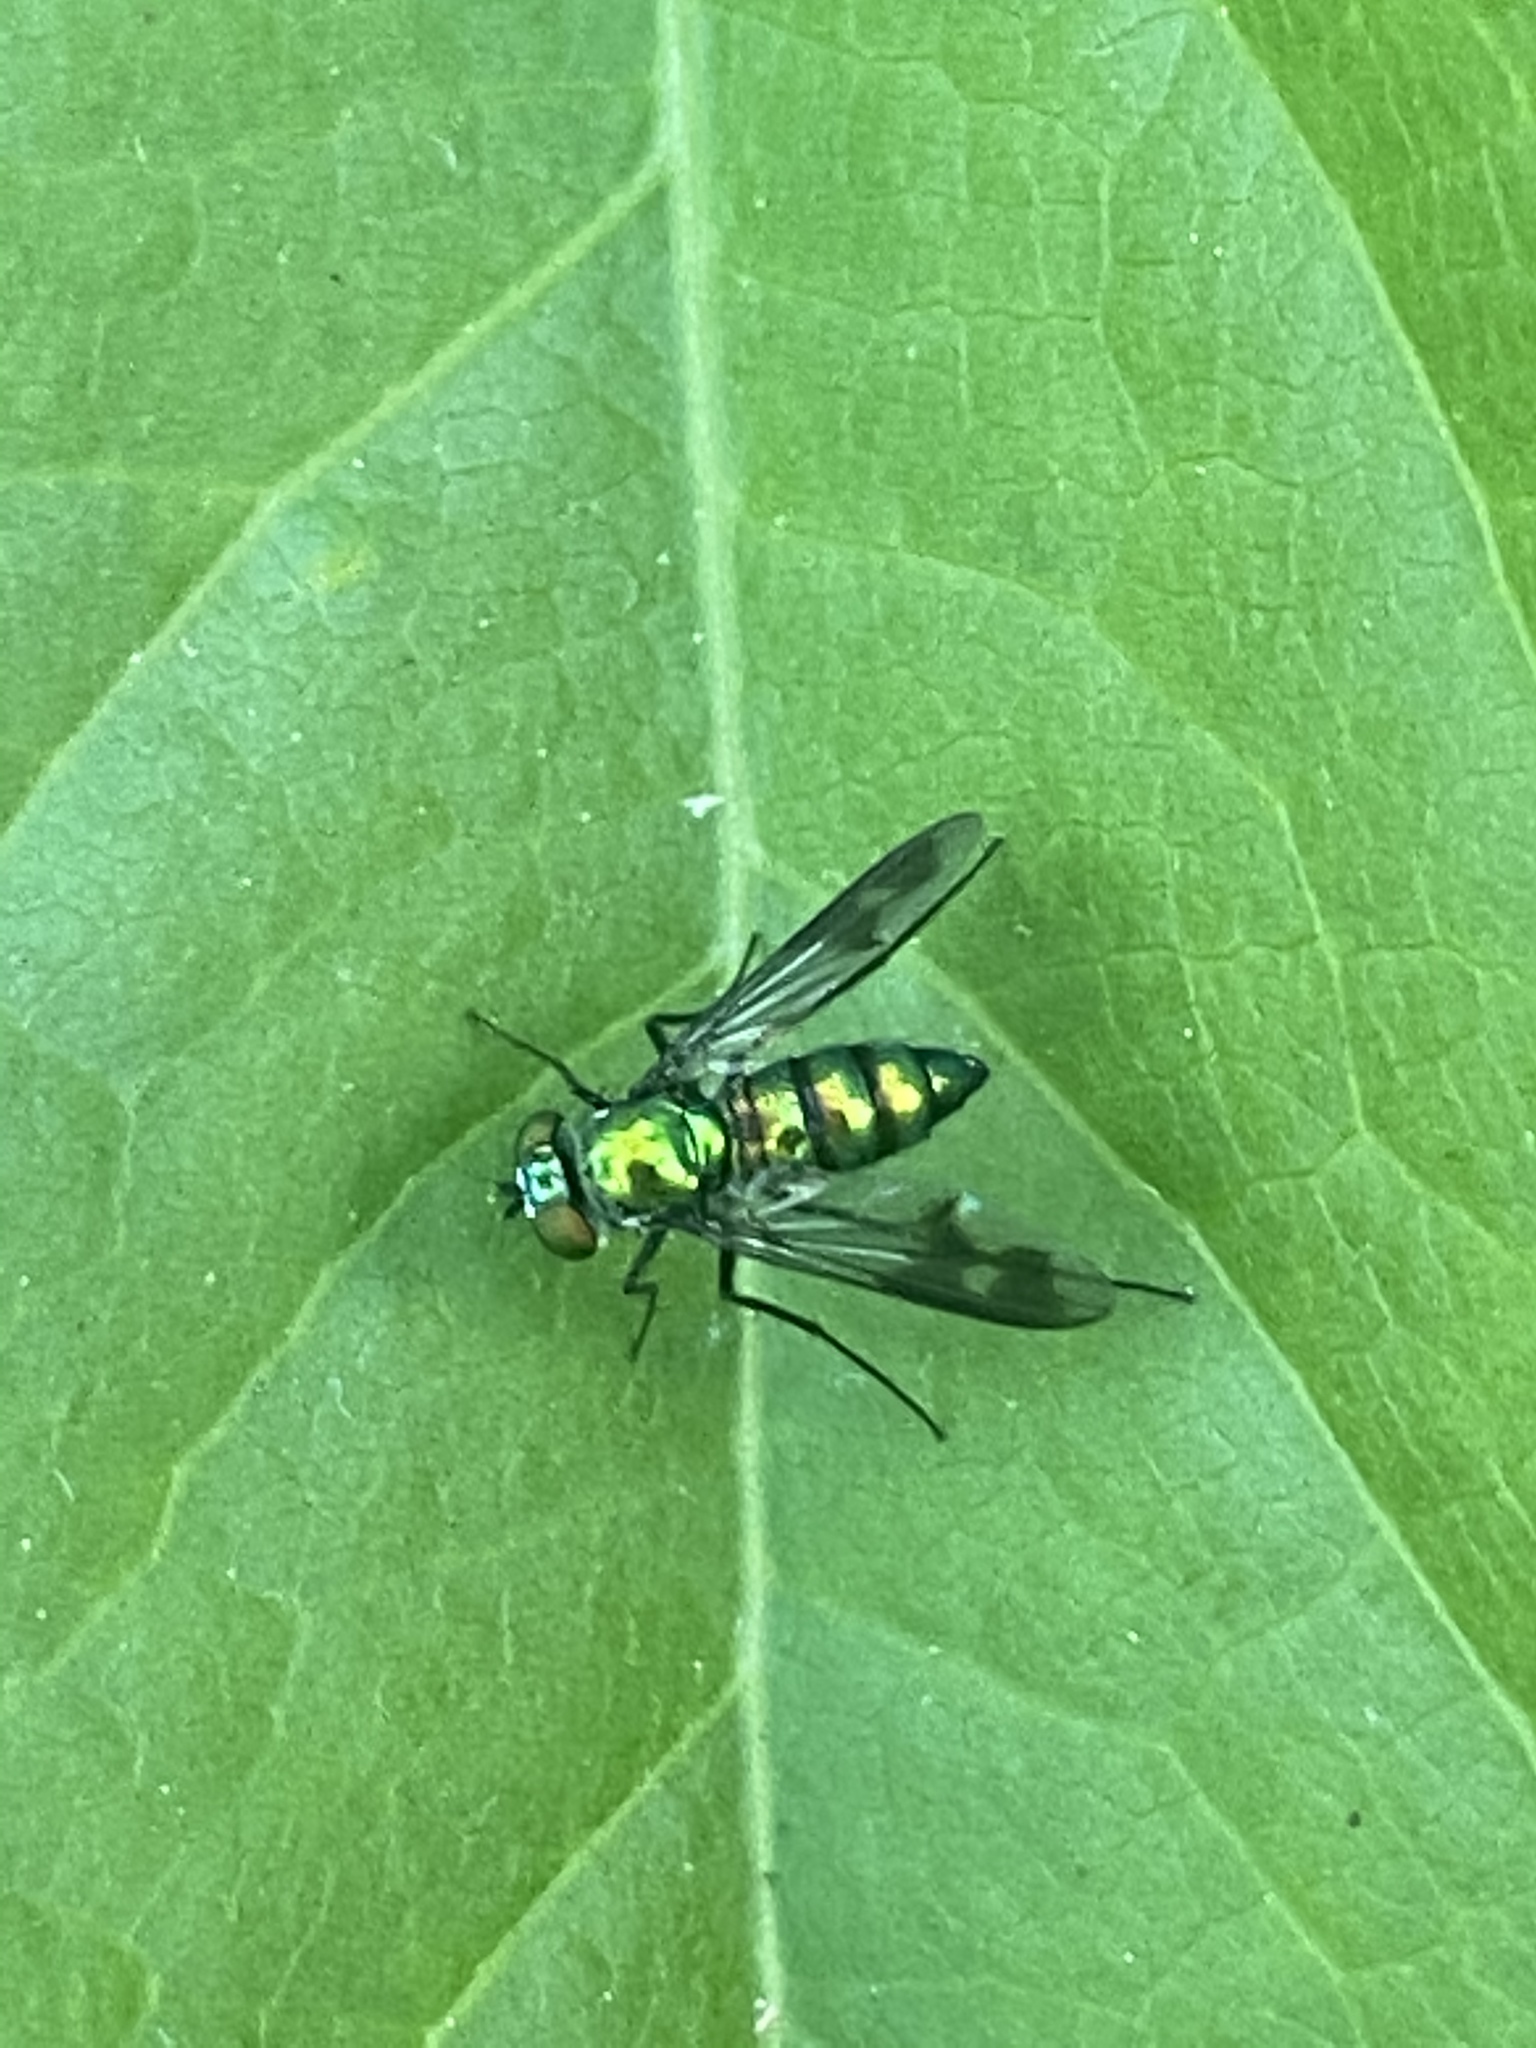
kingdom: Animalia
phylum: Arthropoda
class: Insecta
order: Diptera
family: Dolichopodidae
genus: Condylostylus
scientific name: Condylostylus patibulatus
